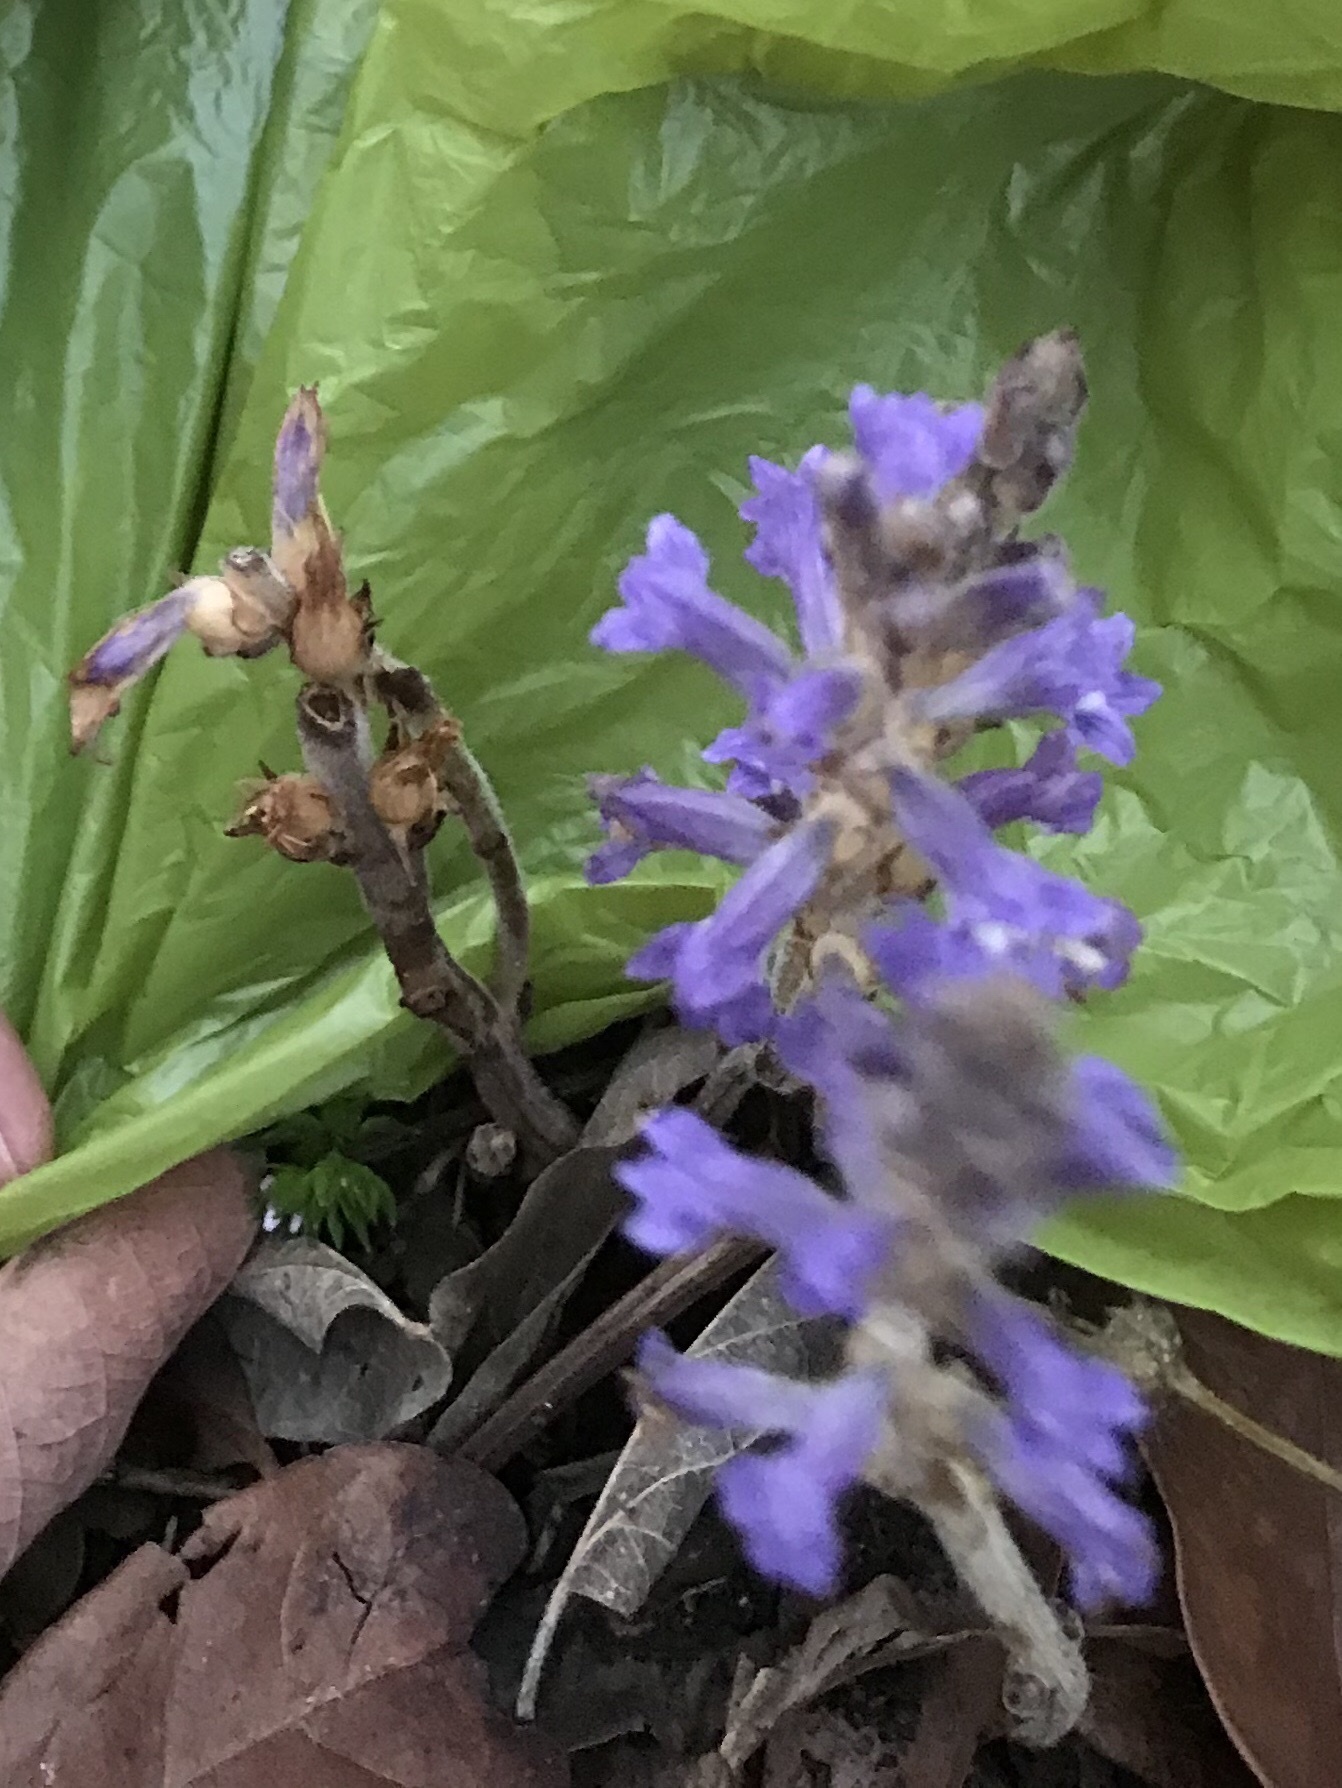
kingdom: Plantae
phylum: Tracheophyta
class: Magnoliopsida
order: Lamiales
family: Orobanchaceae
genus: Phelipanche
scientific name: Phelipanche mutelii
